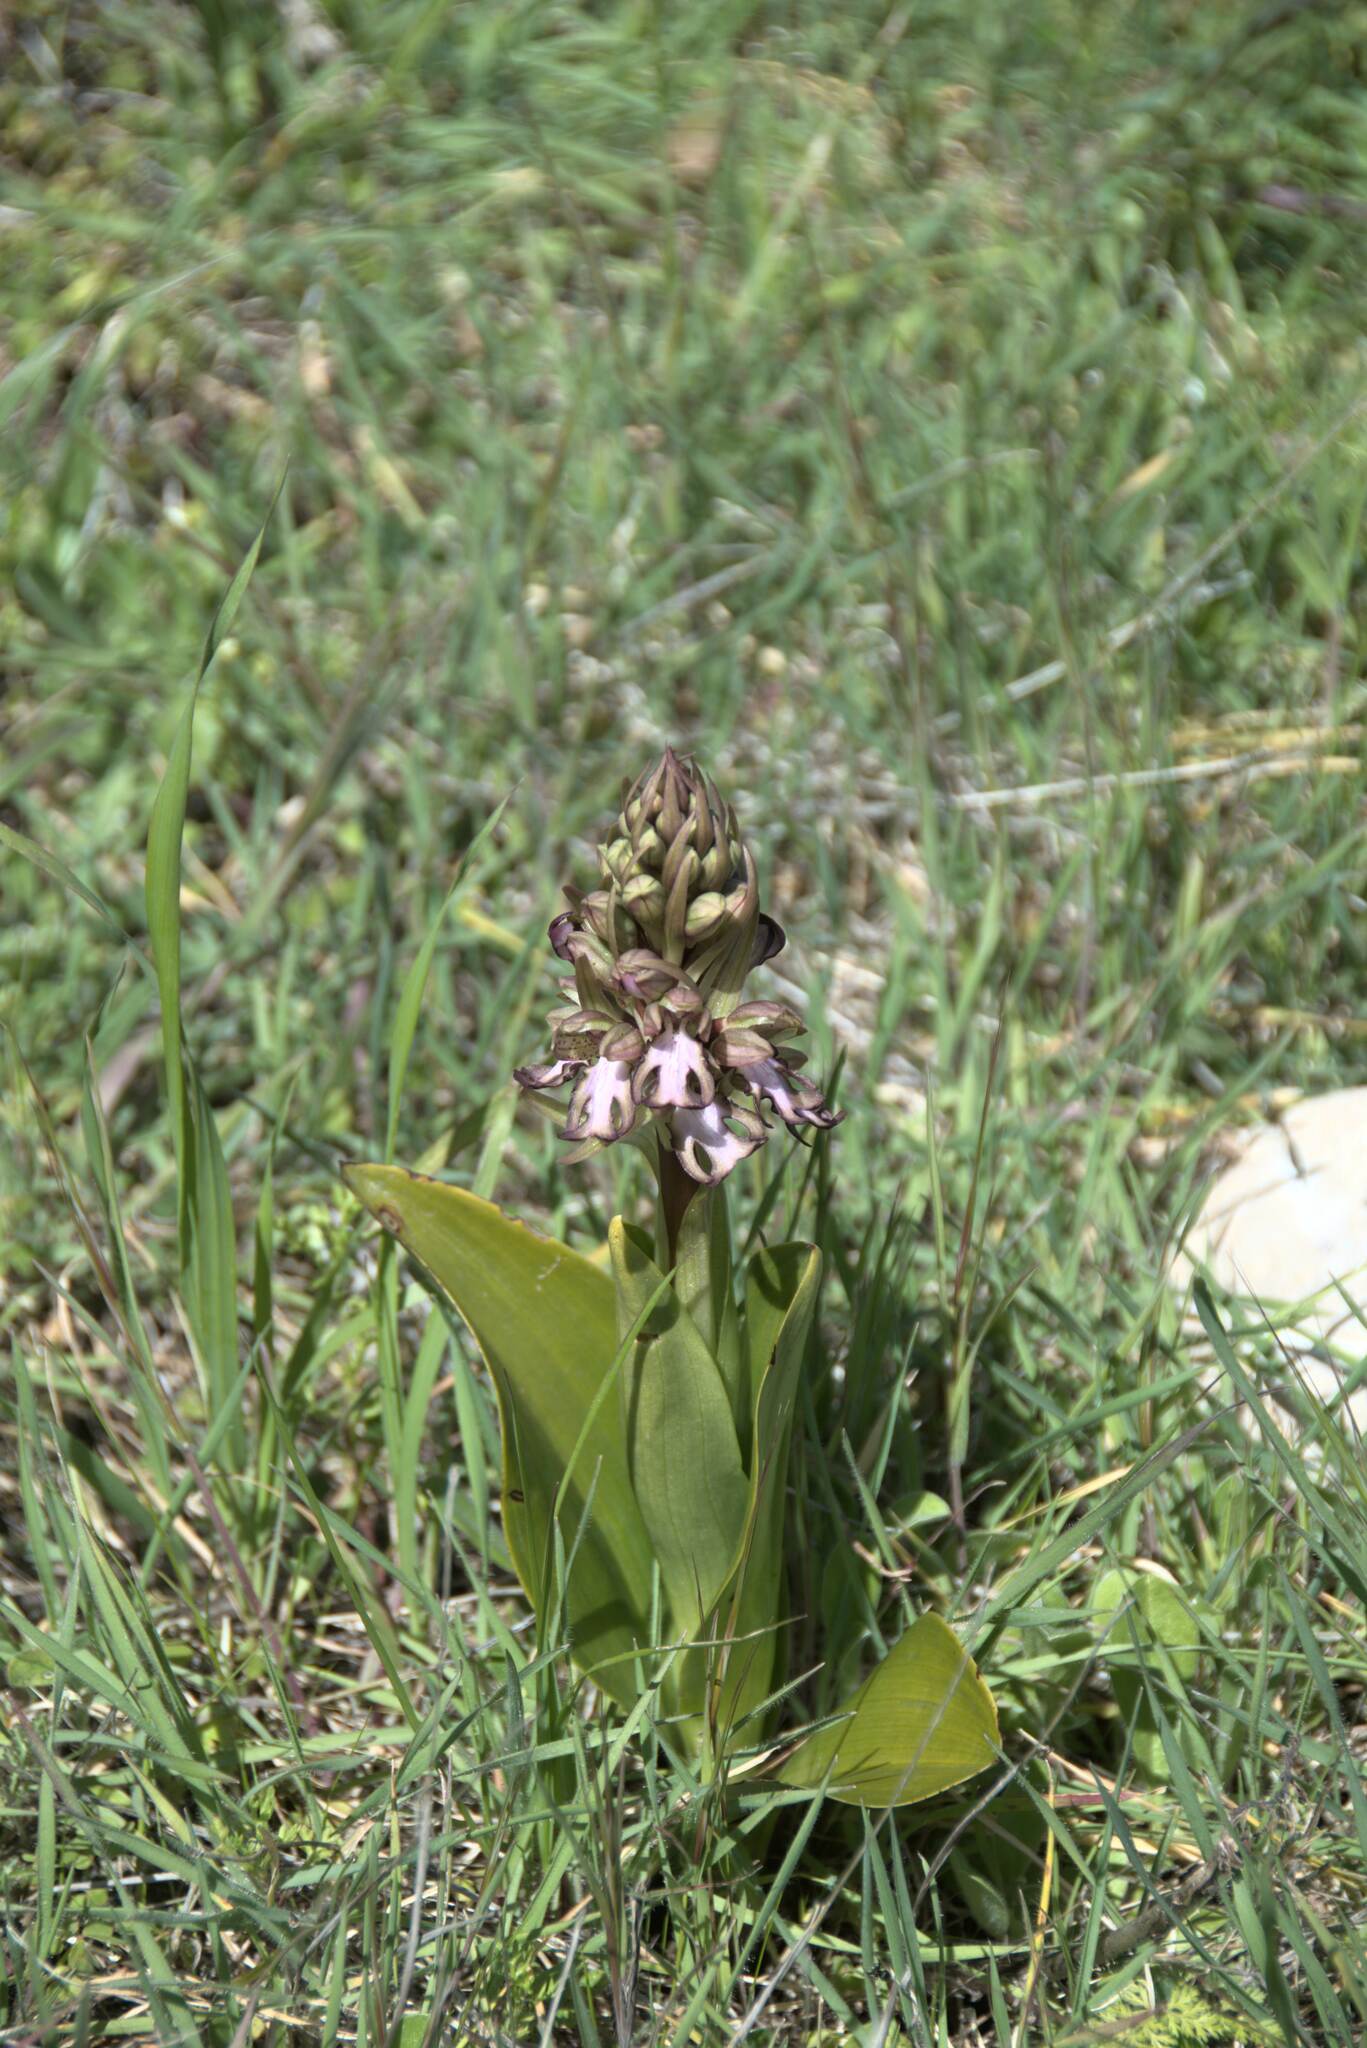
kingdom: Plantae
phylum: Tracheophyta
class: Liliopsida
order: Asparagales
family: Orchidaceae
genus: Himantoglossum
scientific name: Himantoglossum robertianum
